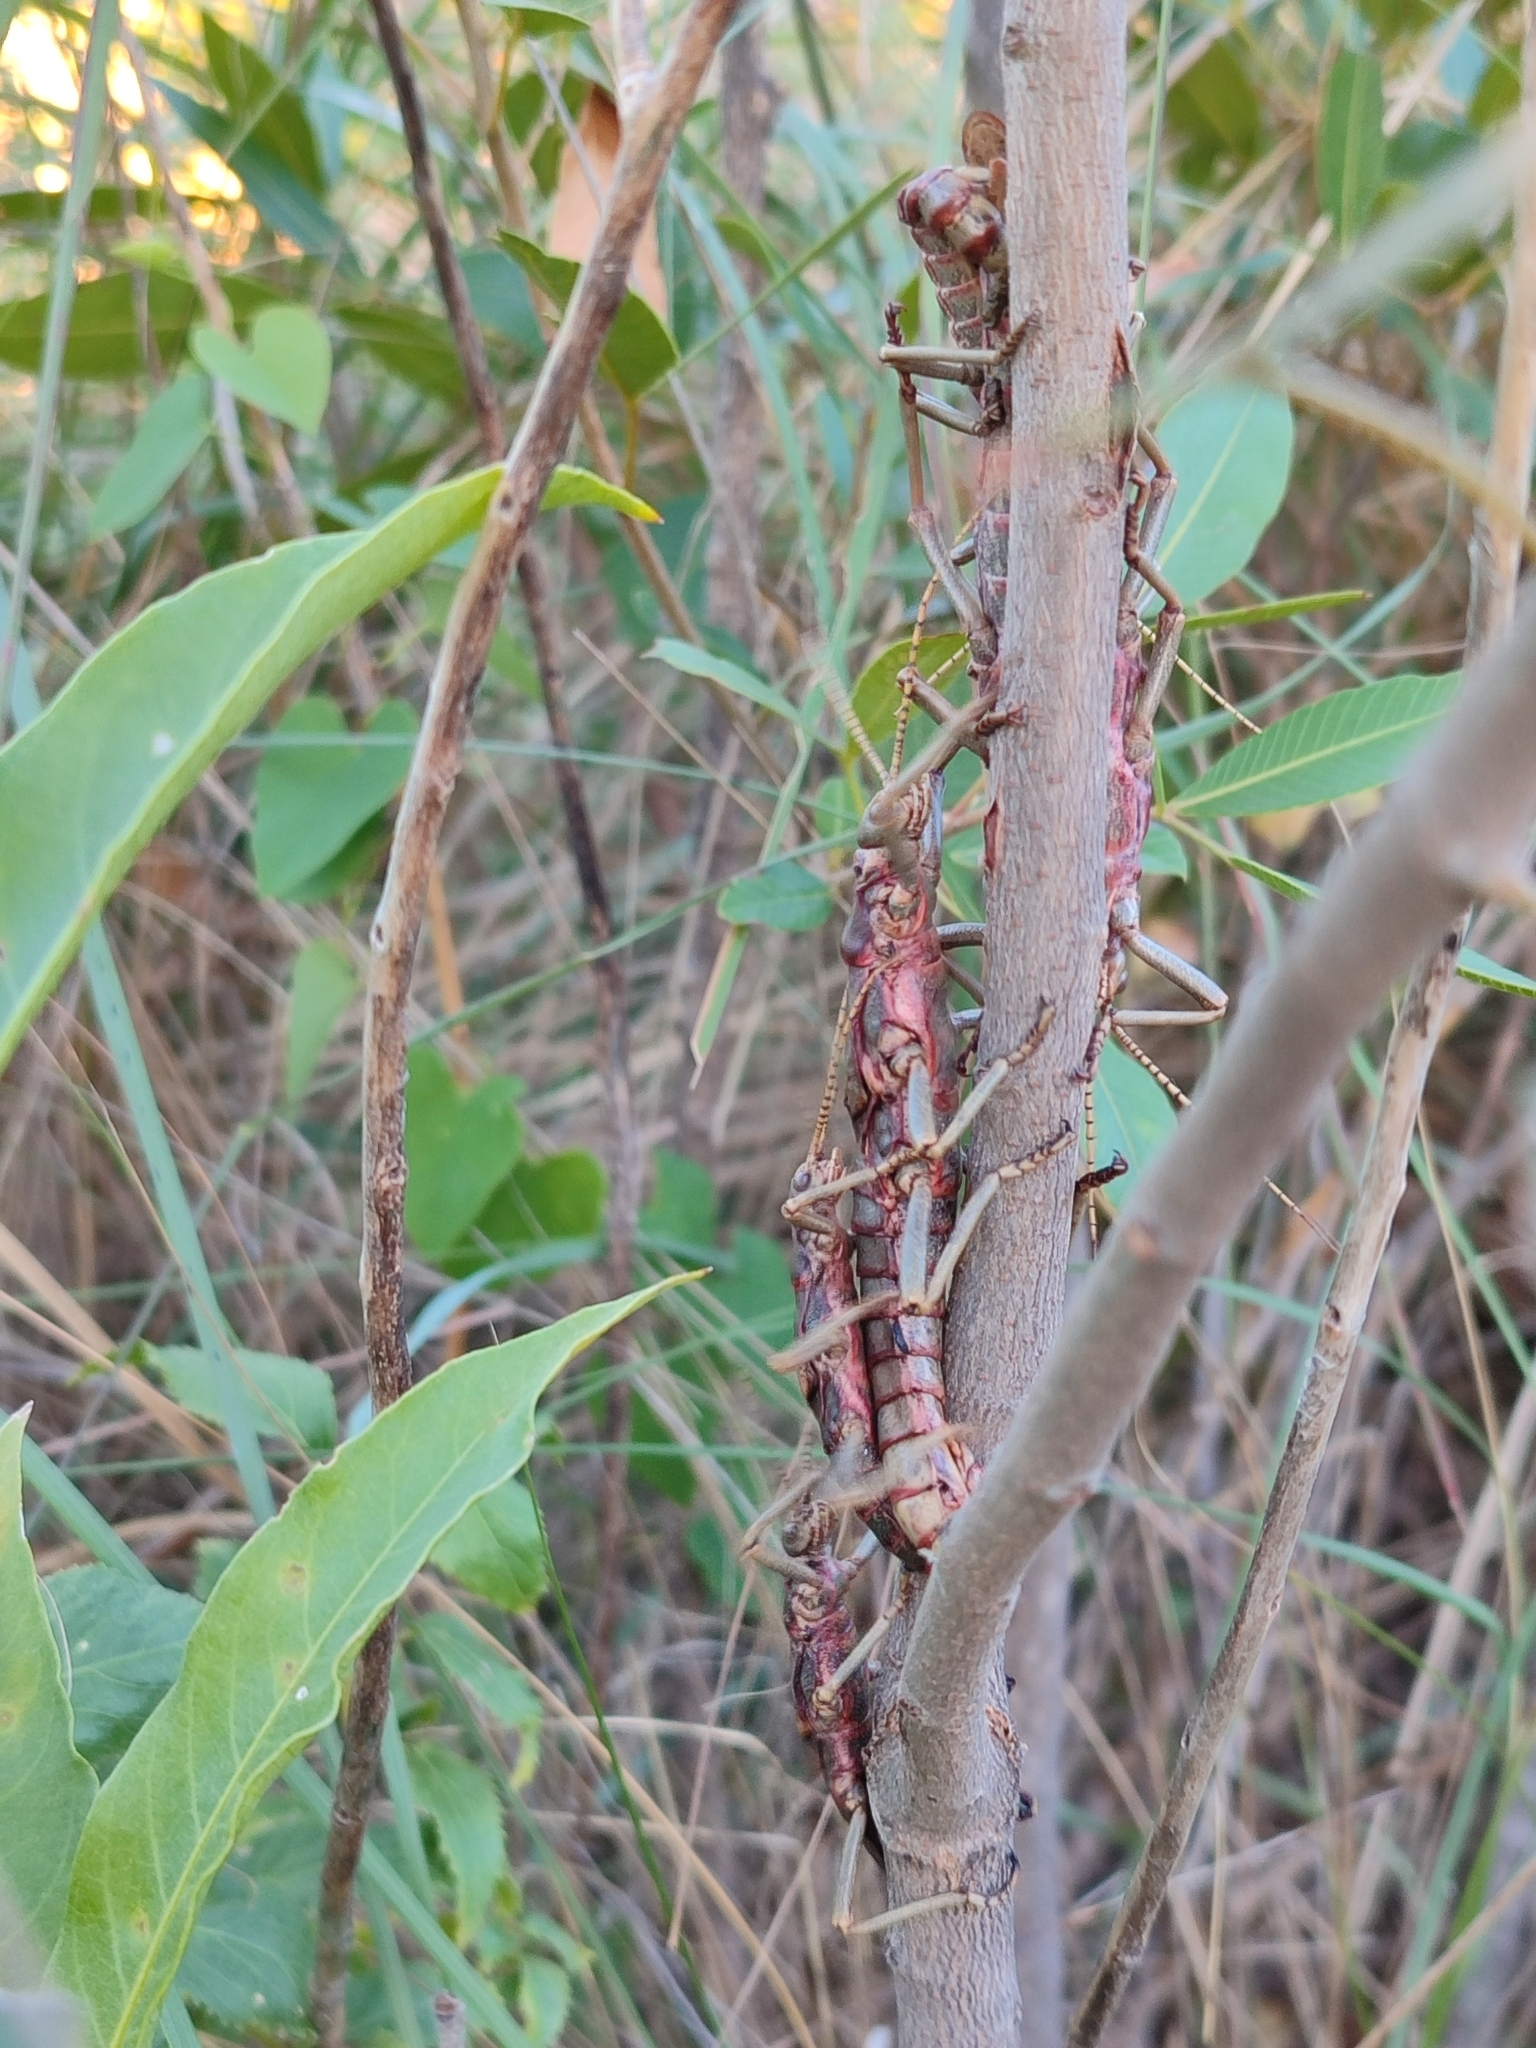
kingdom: Animalia
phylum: Arthropoda
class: Insecta
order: Phasmida
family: Agathemeridae
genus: Agathemera
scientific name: Agathemera luteola
